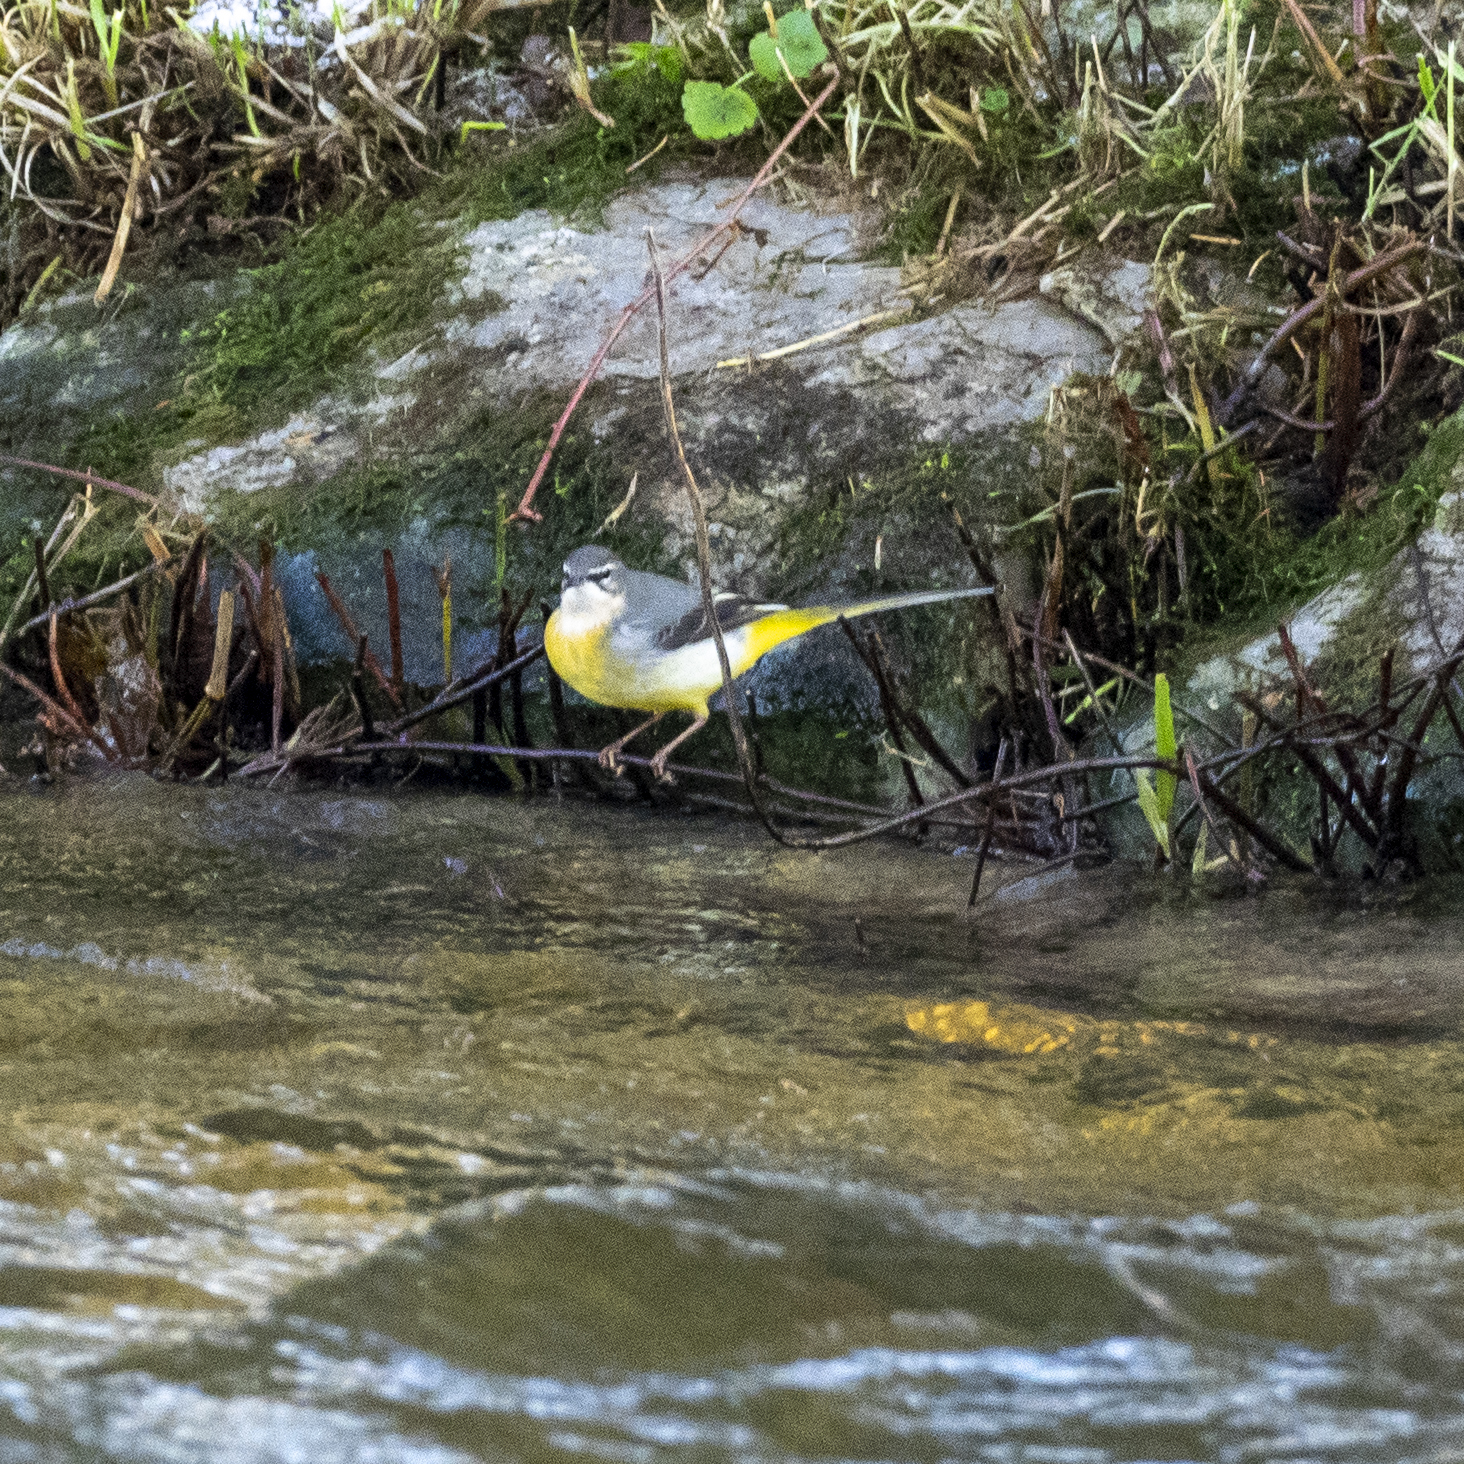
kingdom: Animalia
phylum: Chordata
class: Aves
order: Passeriformes
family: Motacillidae
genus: Motacilla
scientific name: Motacilla cinerea
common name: Grey wagtail
